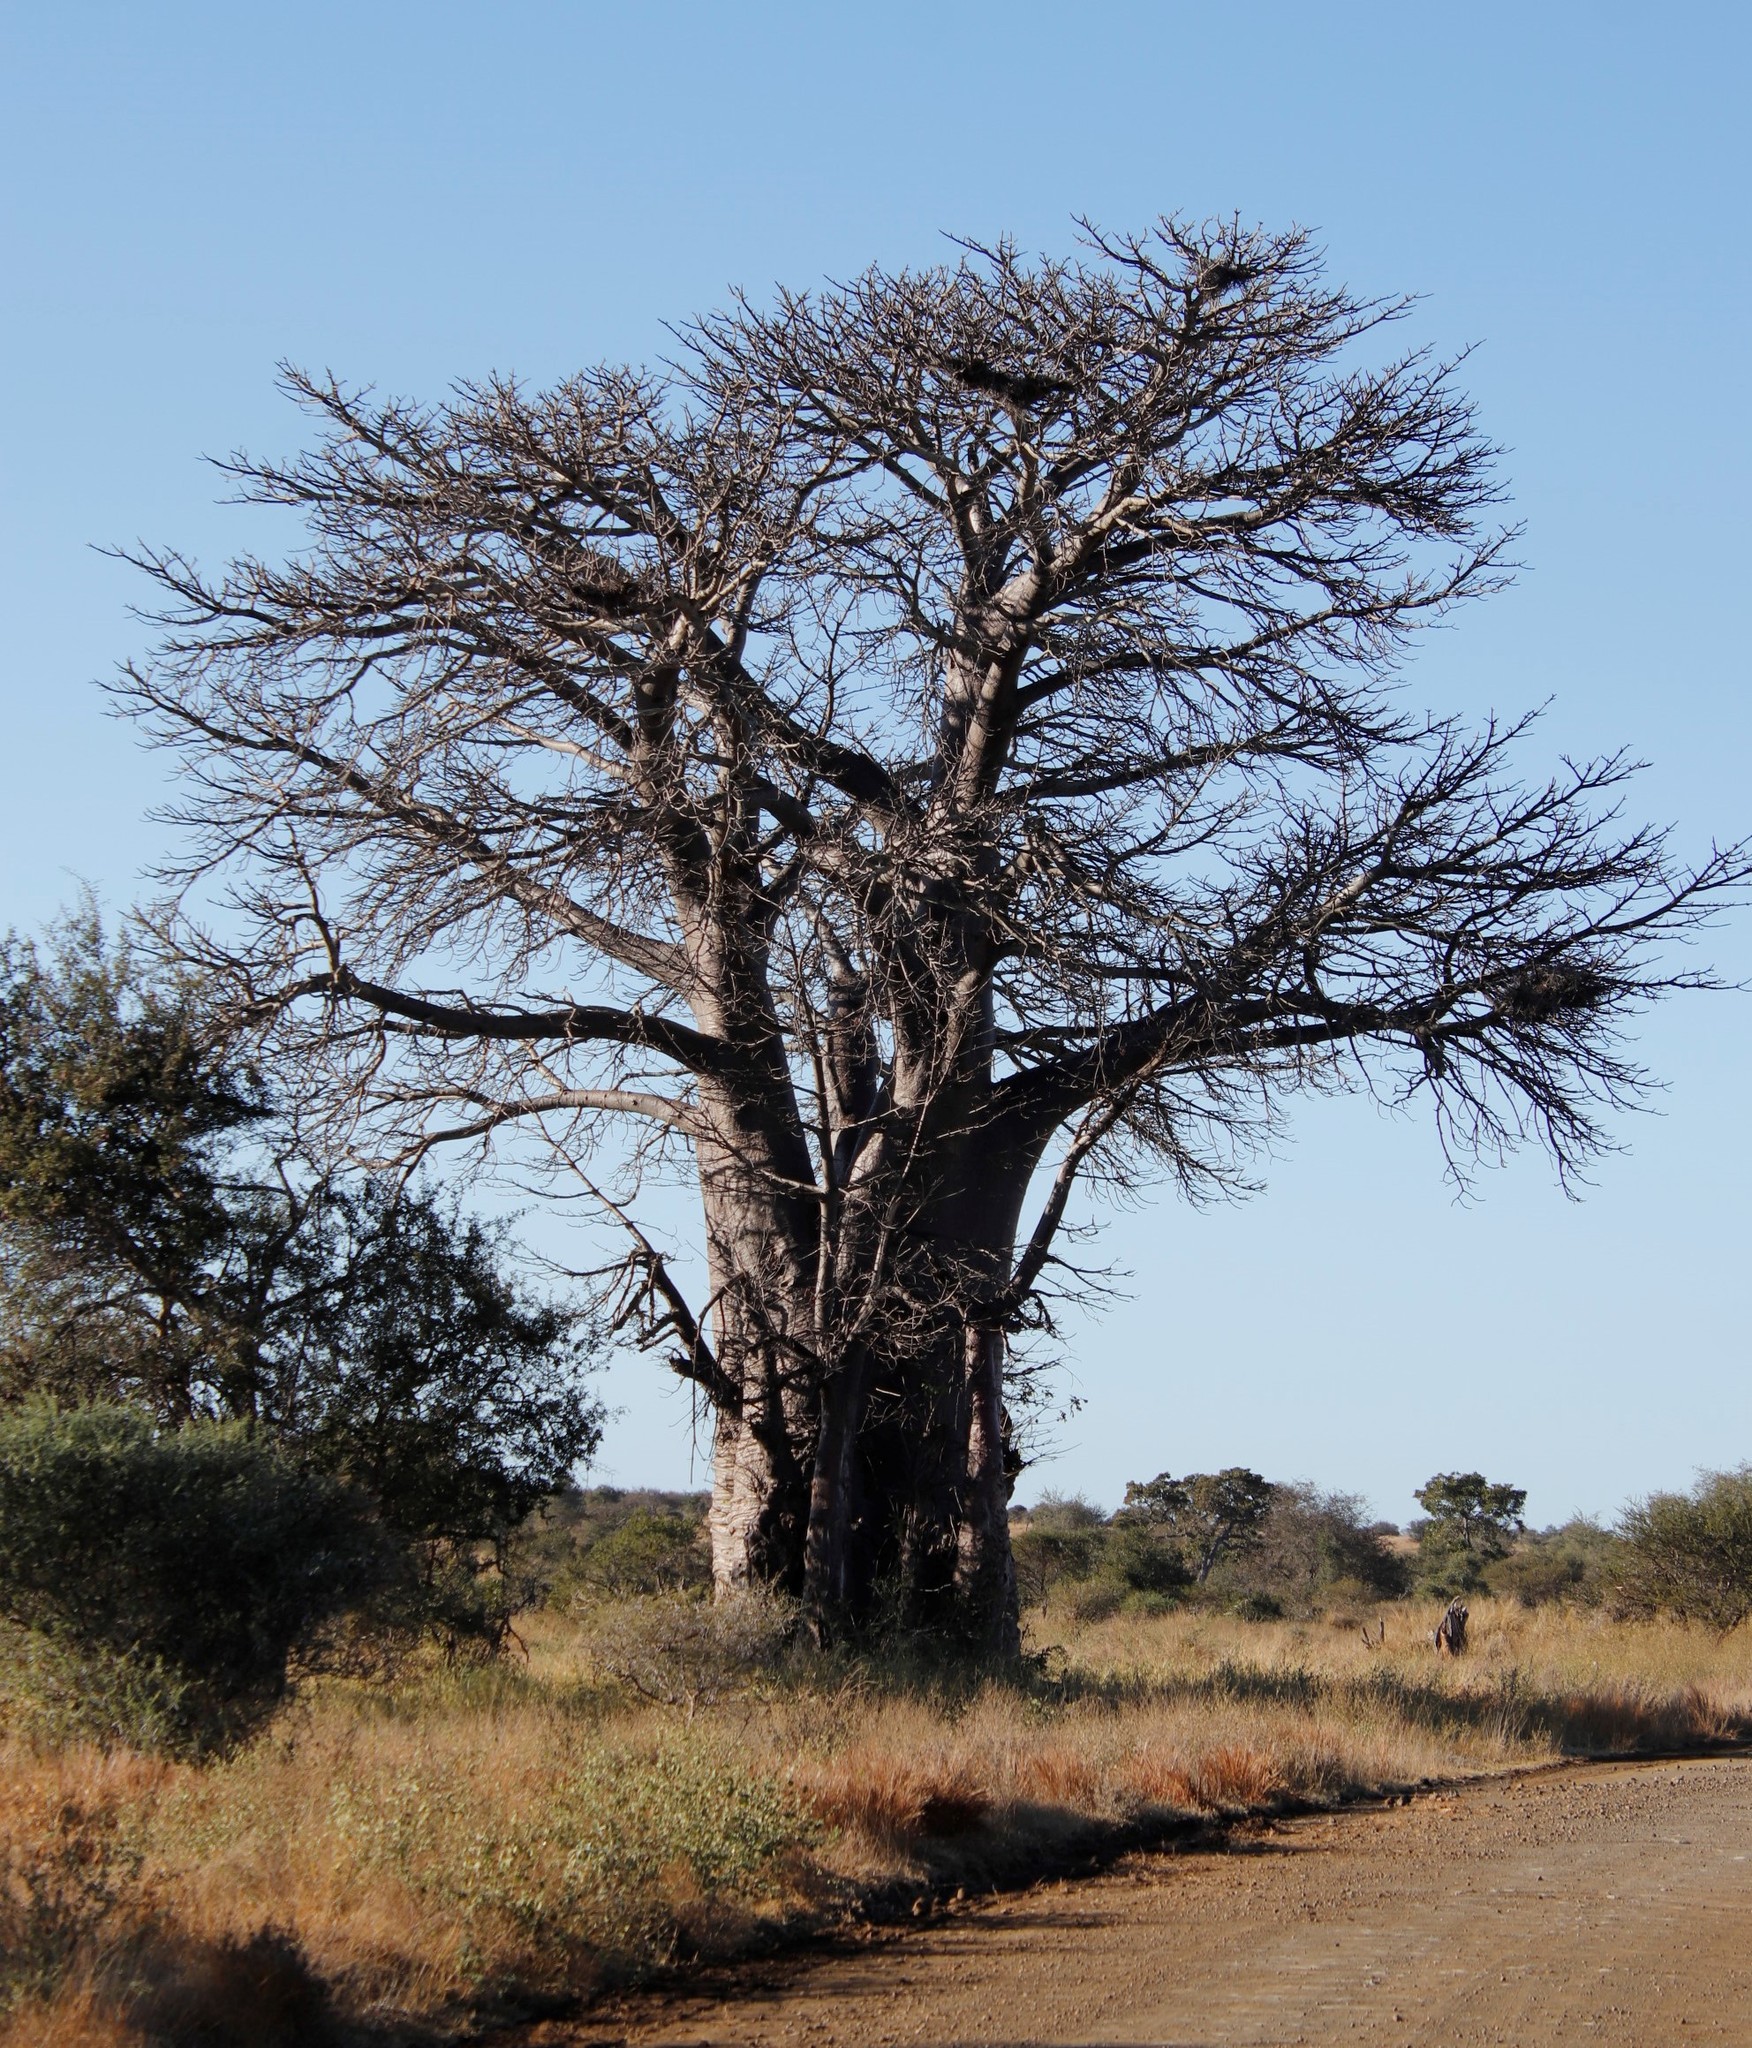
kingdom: Plantae
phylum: Tracheophyta
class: Magnoliopsida
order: Malvales
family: Malvaceae
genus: Adansonia
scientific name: Adansonia digitata
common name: Dead-rat-tree
